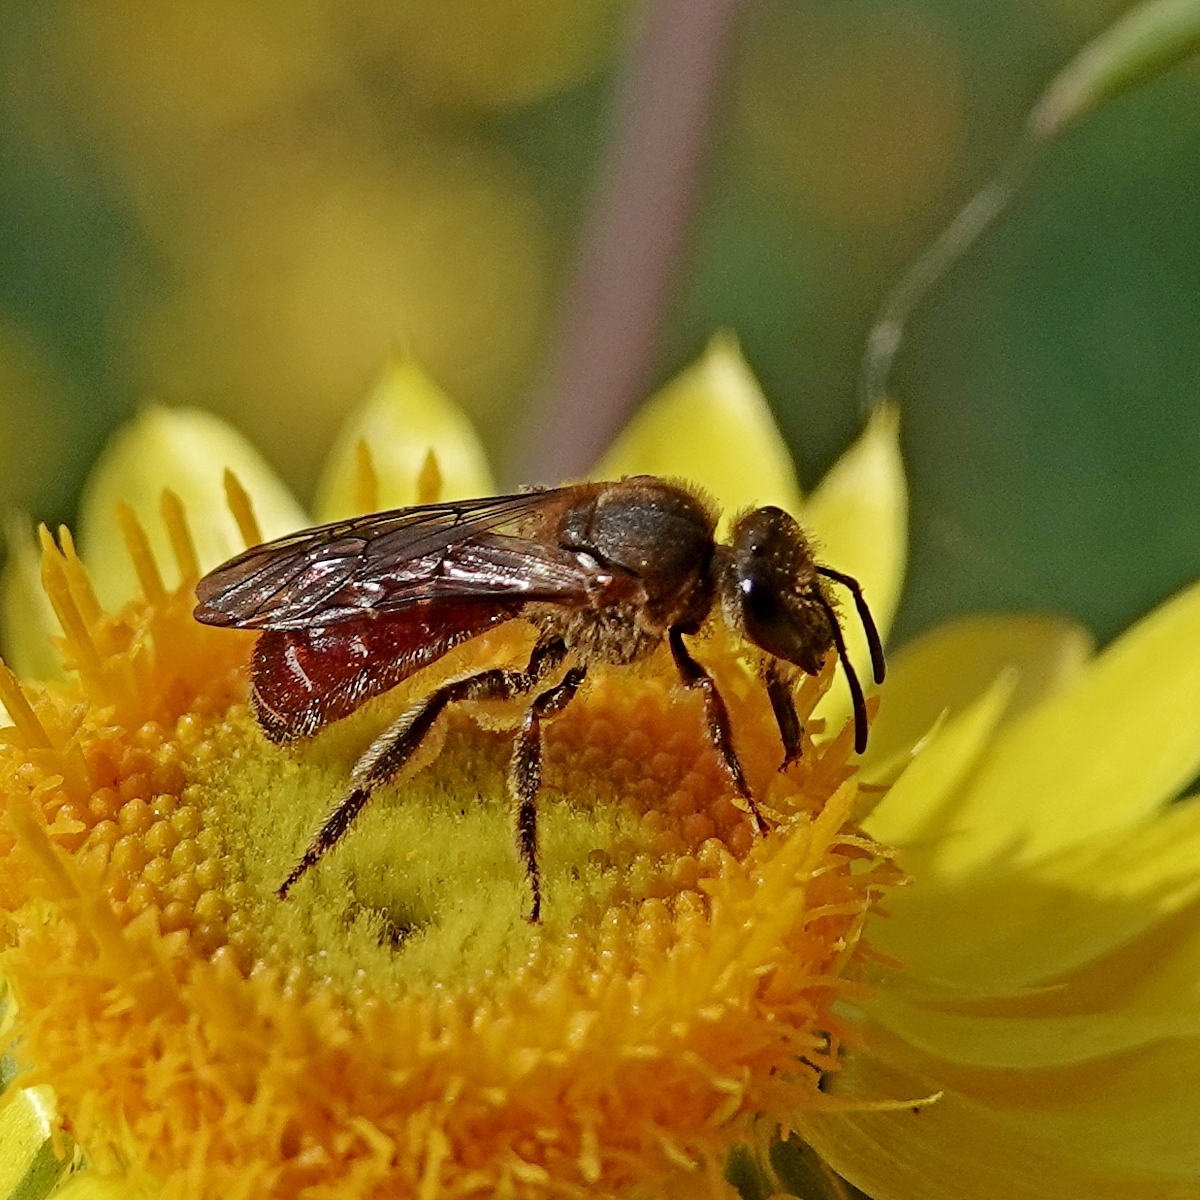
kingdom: Animalia
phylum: Arthropoda
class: Insecta
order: Hymenoptera
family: Halictidae
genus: Parasphecodes
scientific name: Parasphecodes
